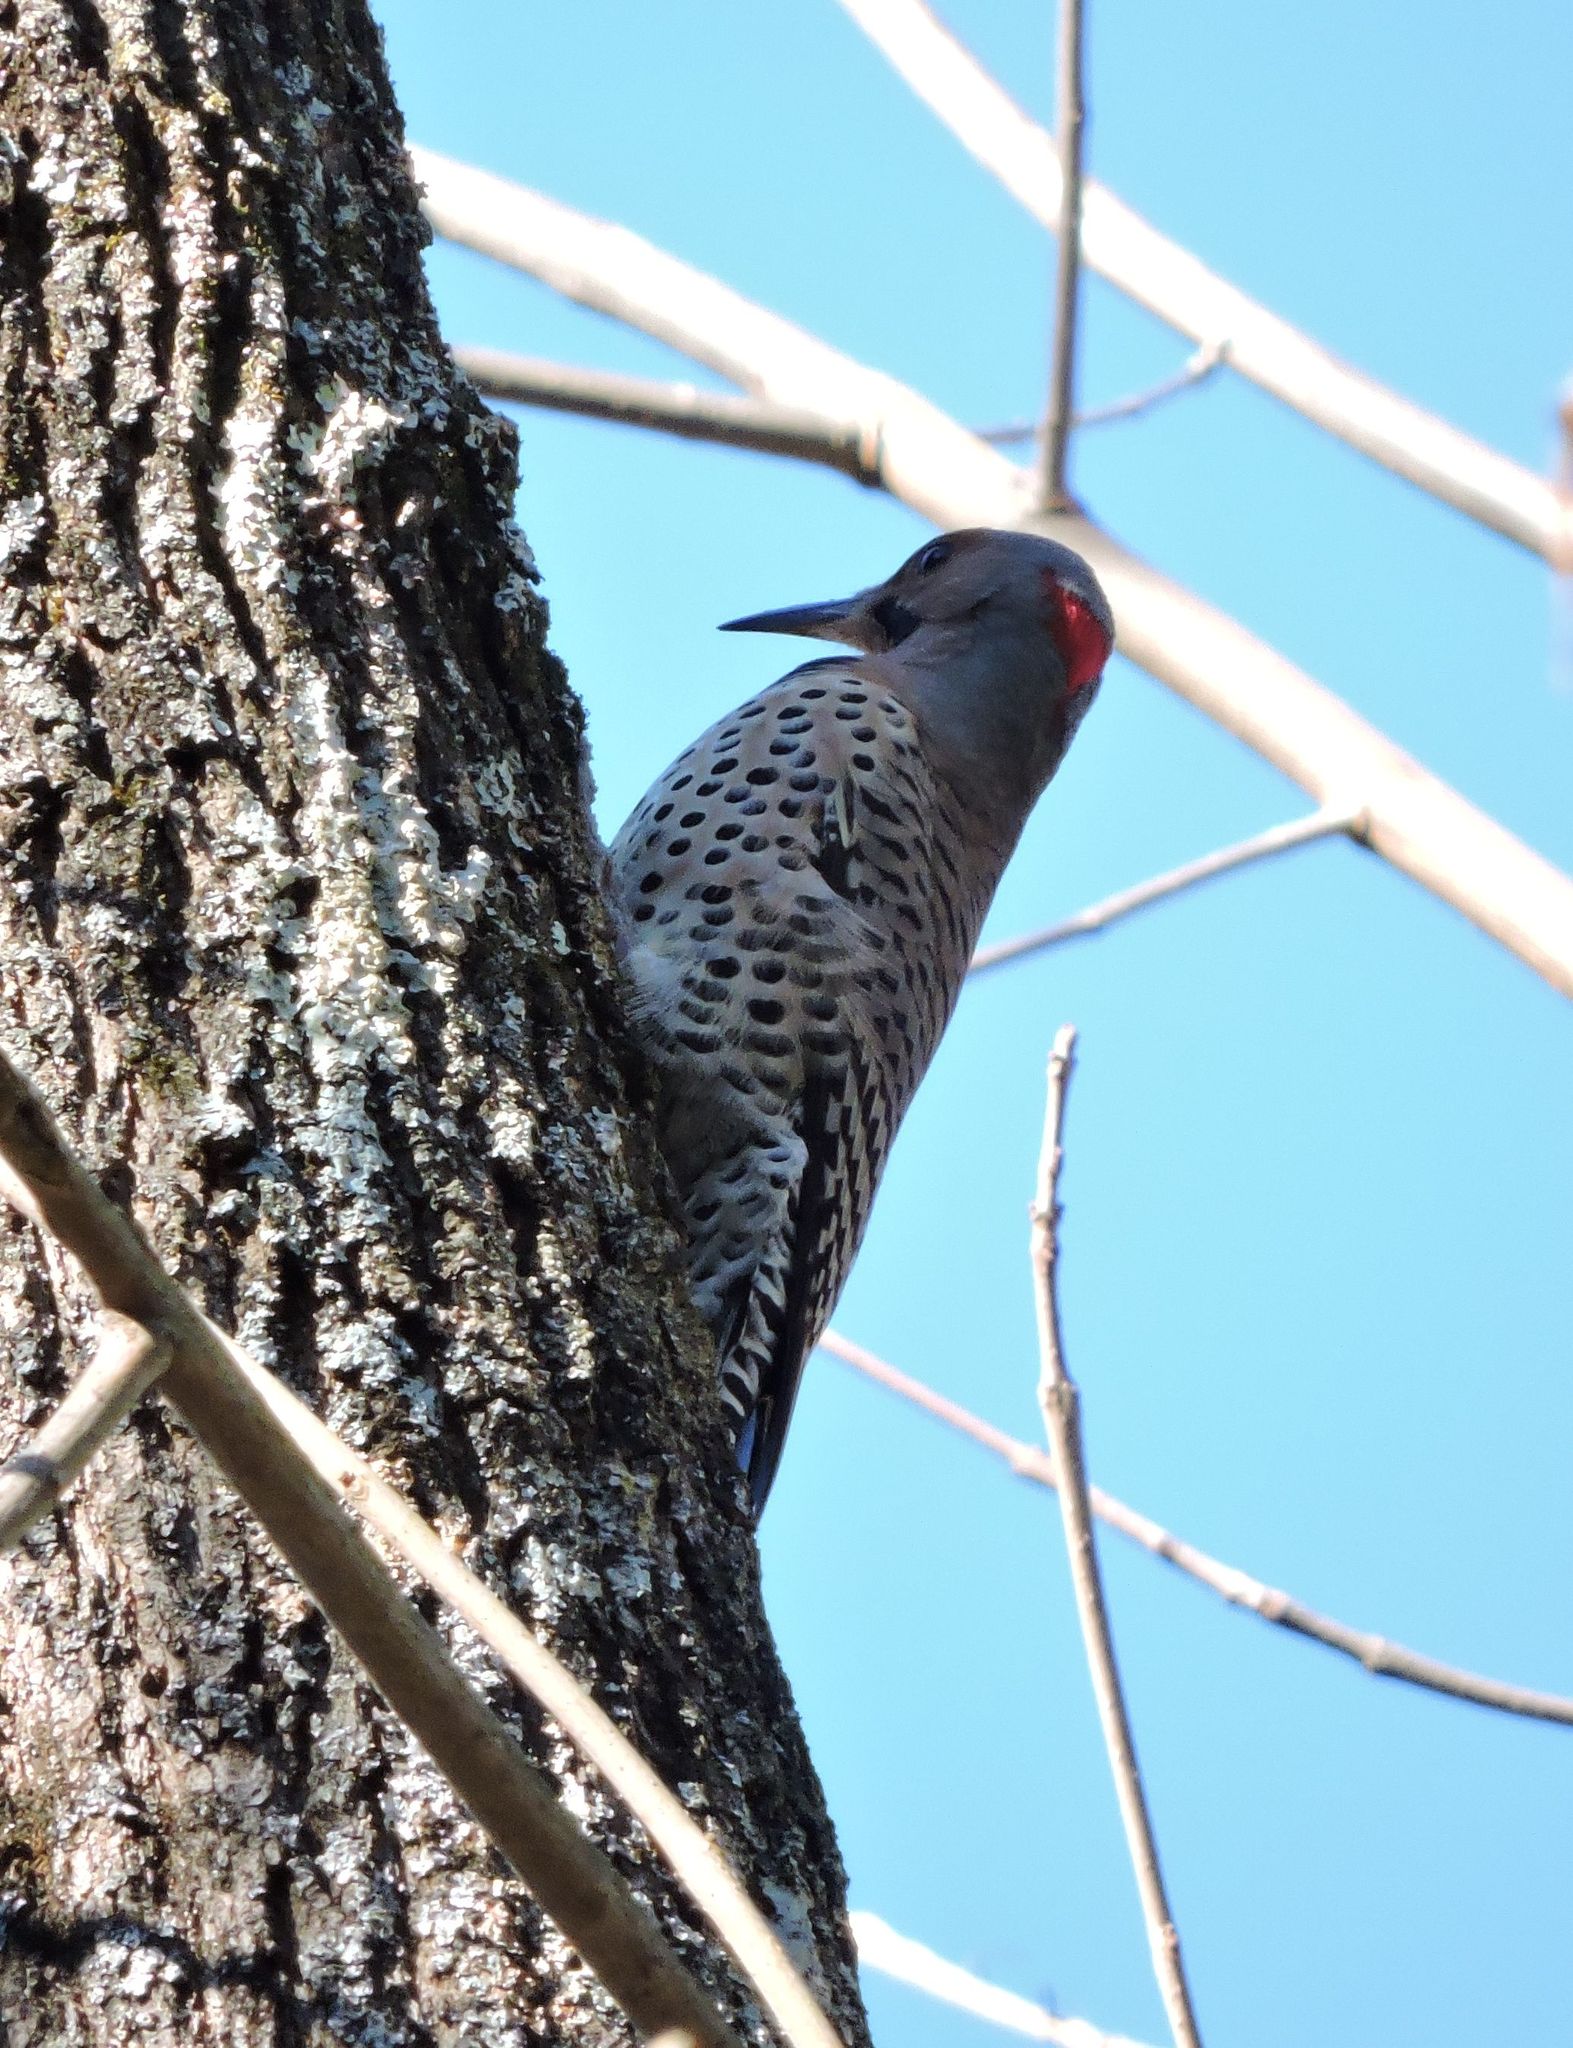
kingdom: Animalia
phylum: Chordata
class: Aves
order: Piciformes
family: Picidae
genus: Colaptes
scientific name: Colaptes auratus
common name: Northern flicker
